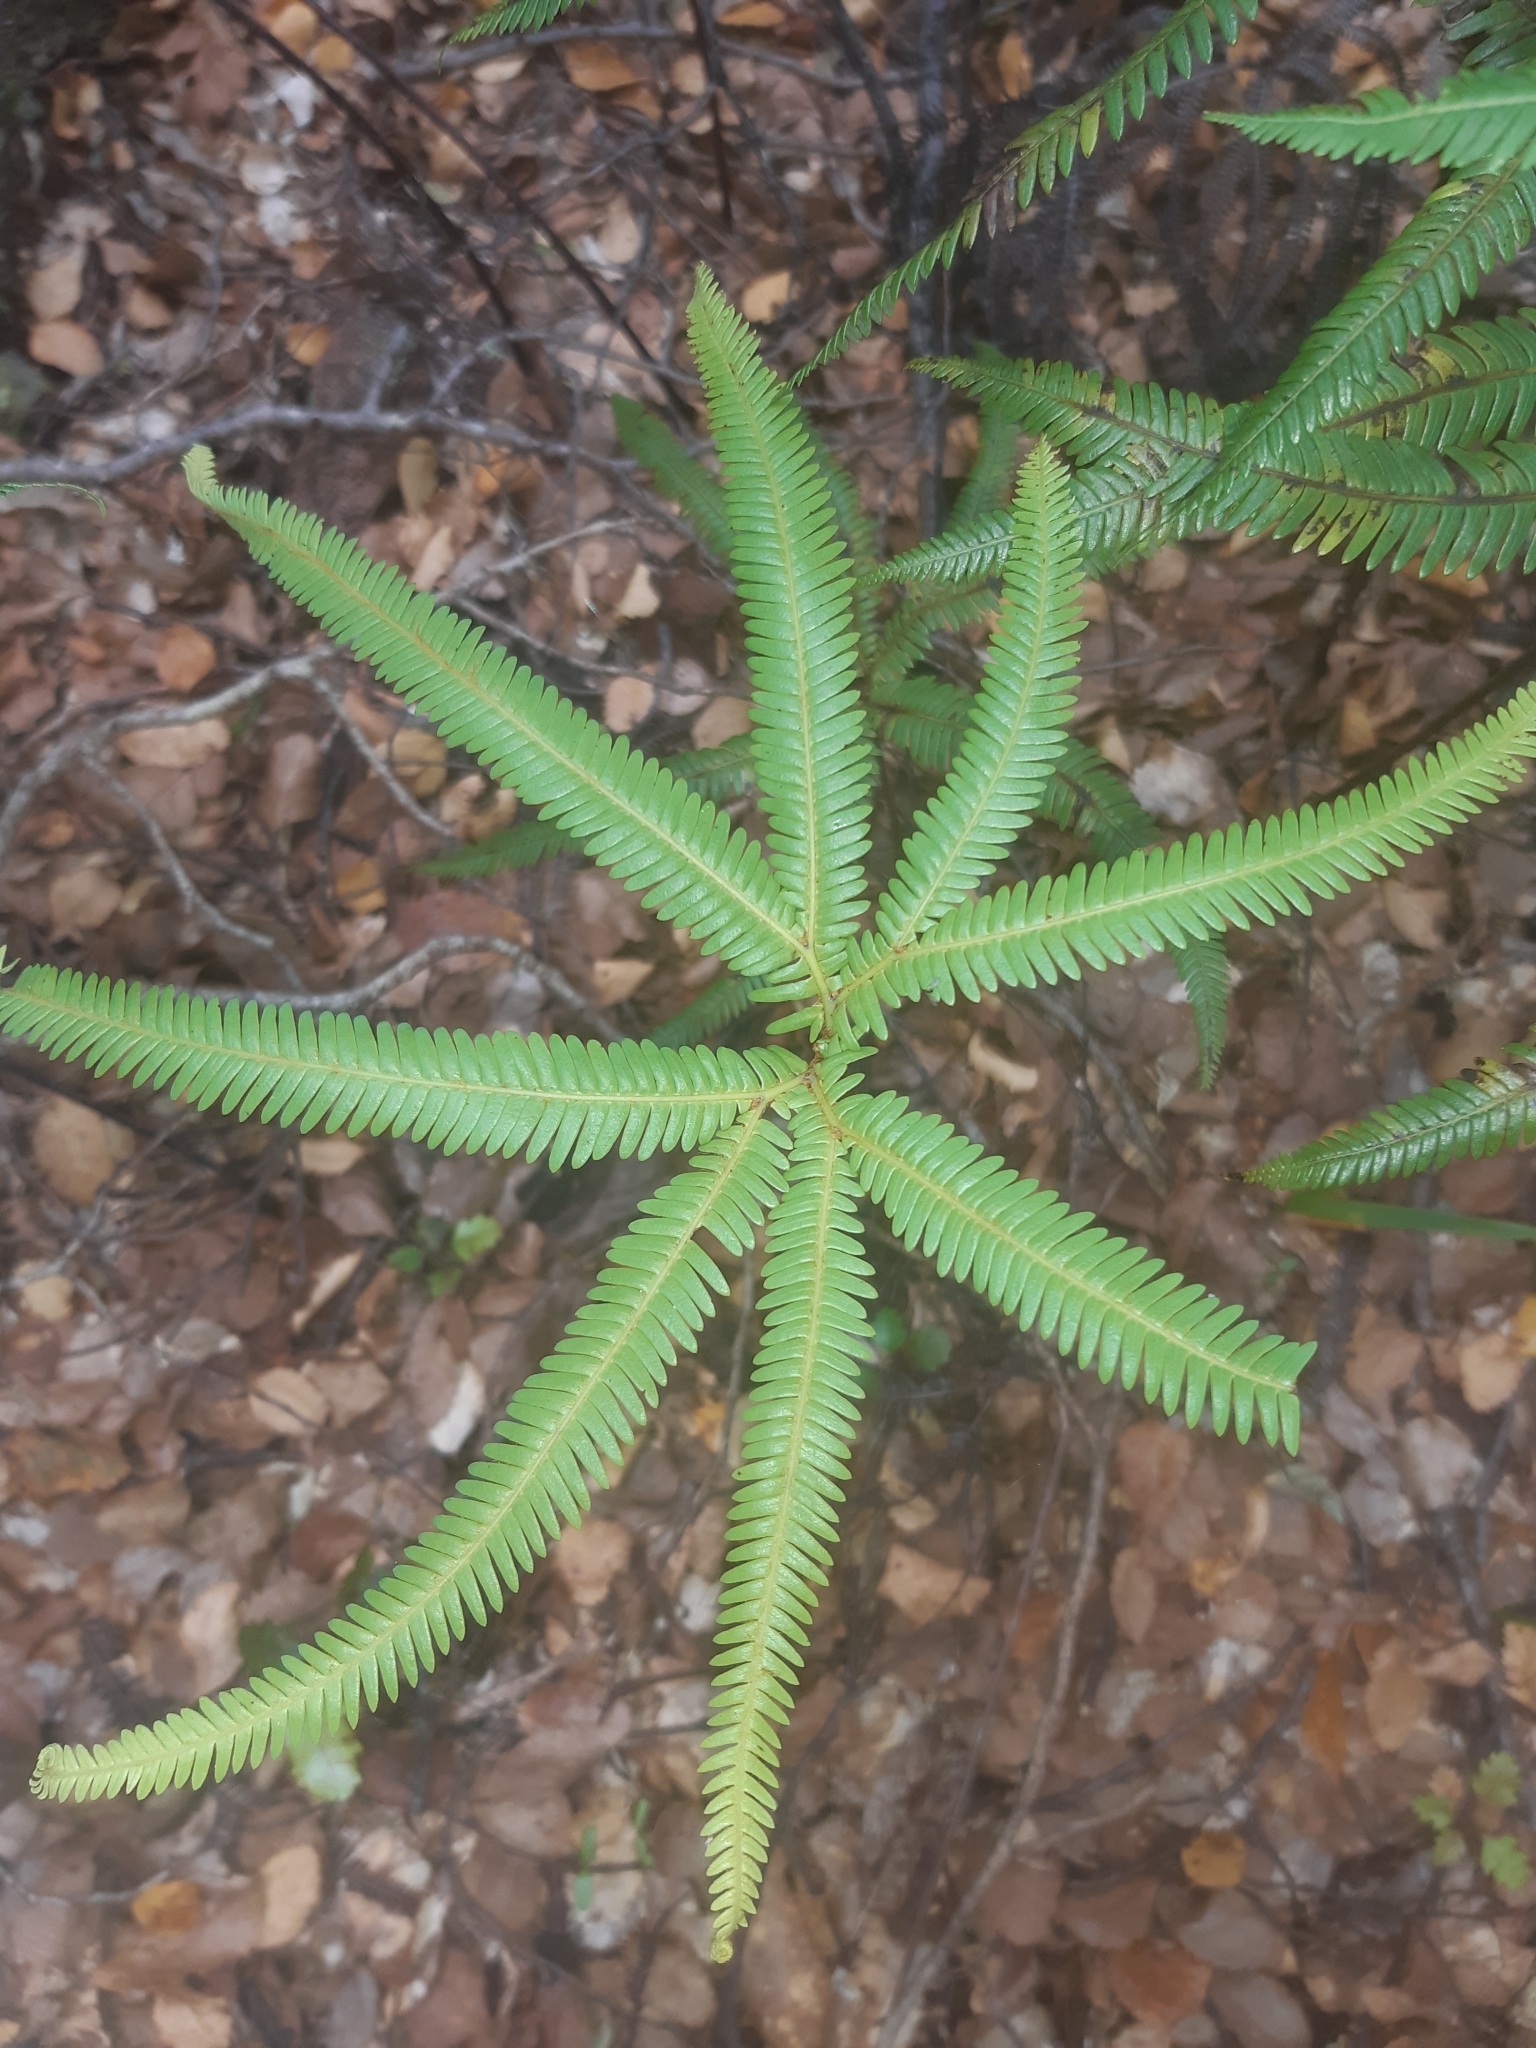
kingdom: Plantae
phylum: Tracheophyta
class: Polypodiopsida
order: Gleicheniales
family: Gleicheniaceae
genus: Sticherus
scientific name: Sticherus cunninghamii
